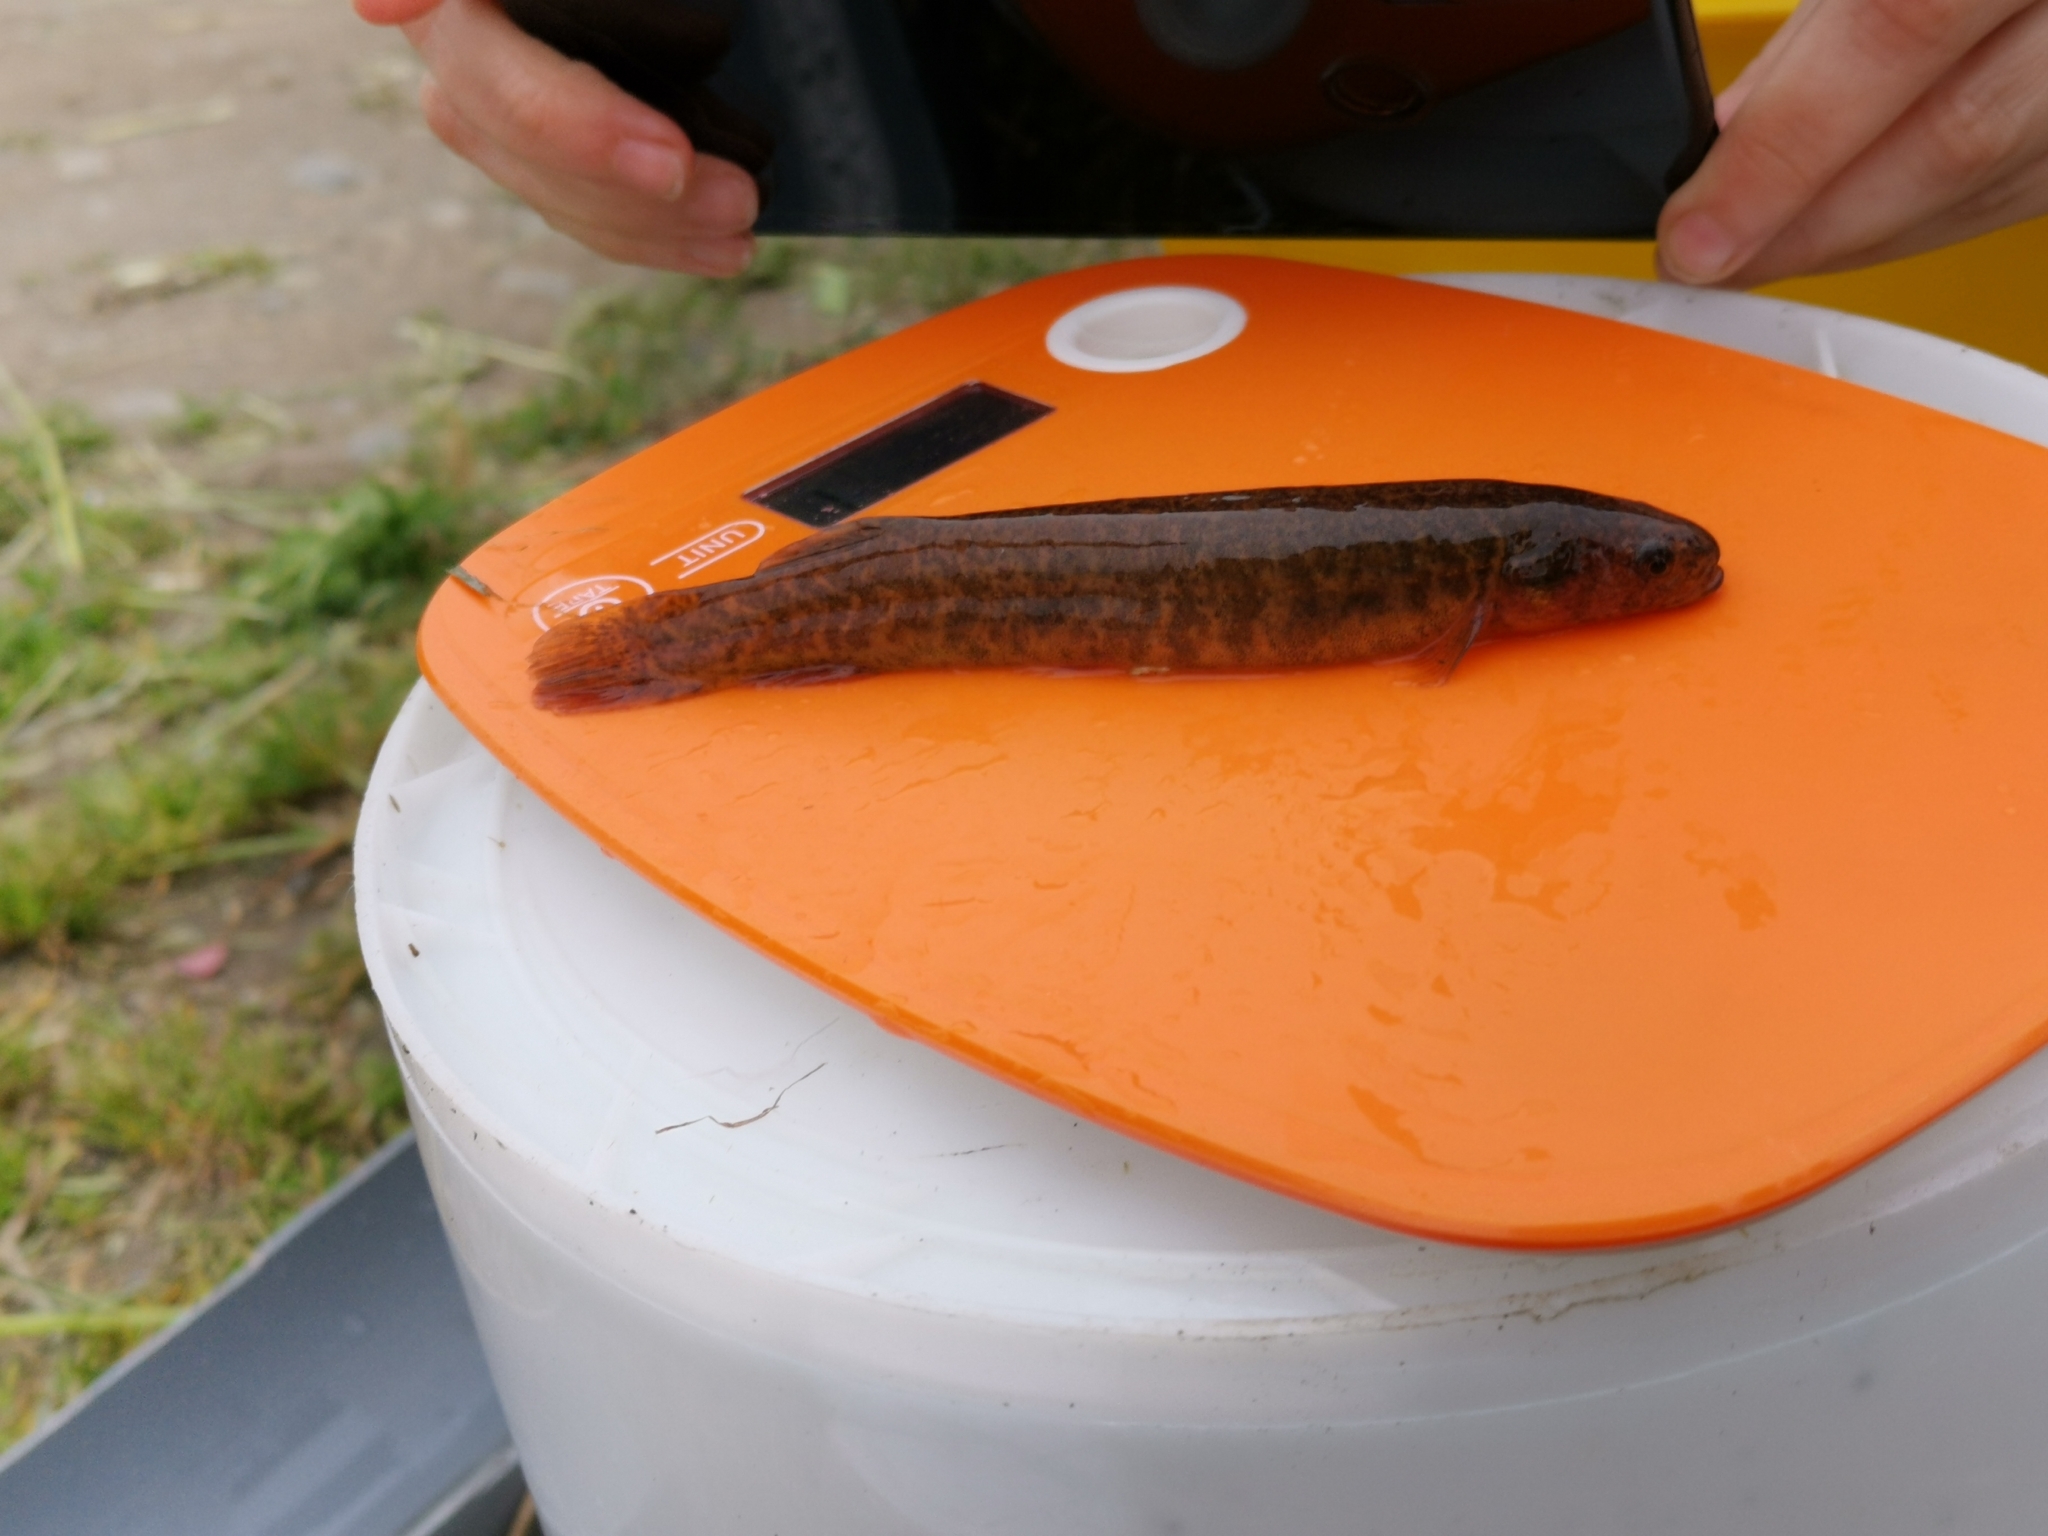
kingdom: Animalia
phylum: Chordata
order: Osmeriformes
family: Galaxiidae
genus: Galaxias
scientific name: Galaxias platei
